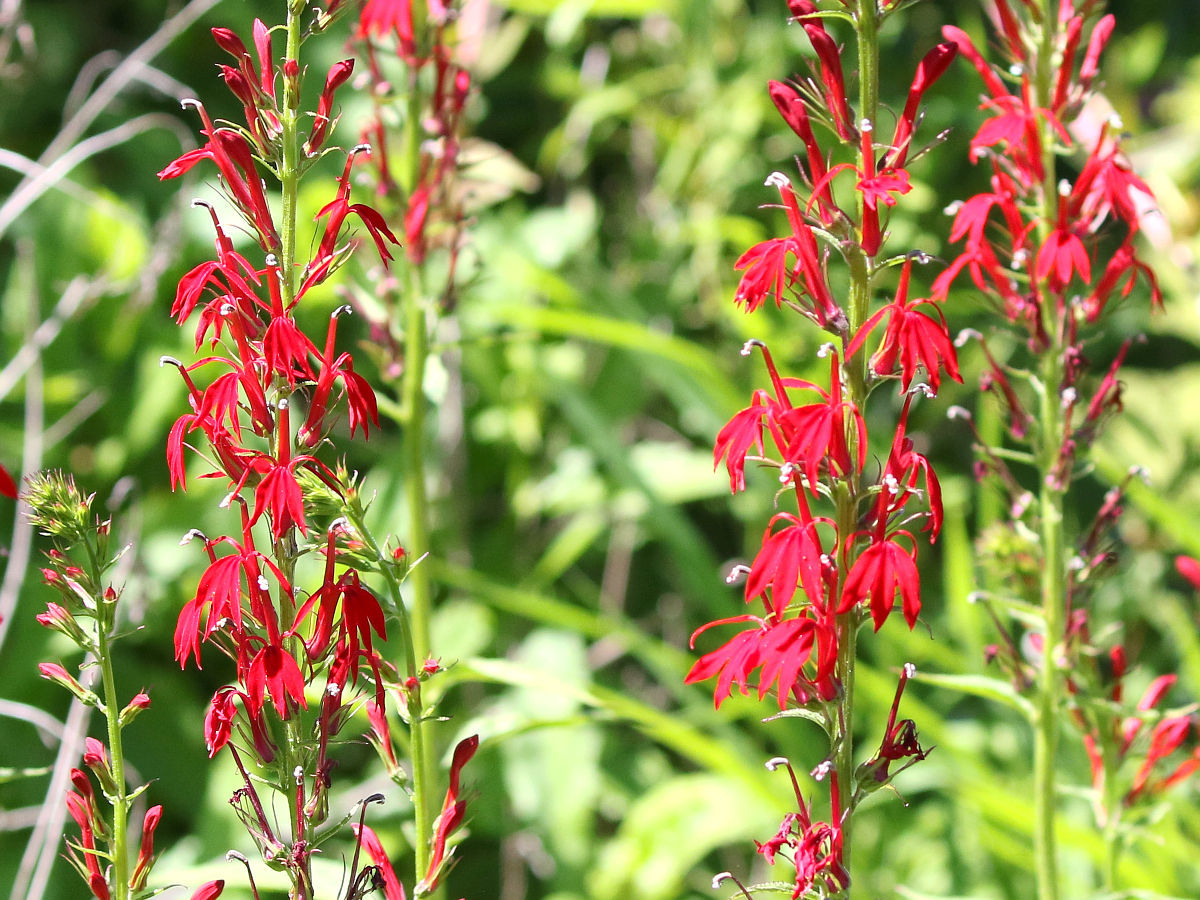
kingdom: Plantae
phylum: Tracheophyta
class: Magnoliopsida
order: Asterales
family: Campanulaceae
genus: Lobelia
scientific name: Lobelia cardinalis
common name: Cardinal flower
